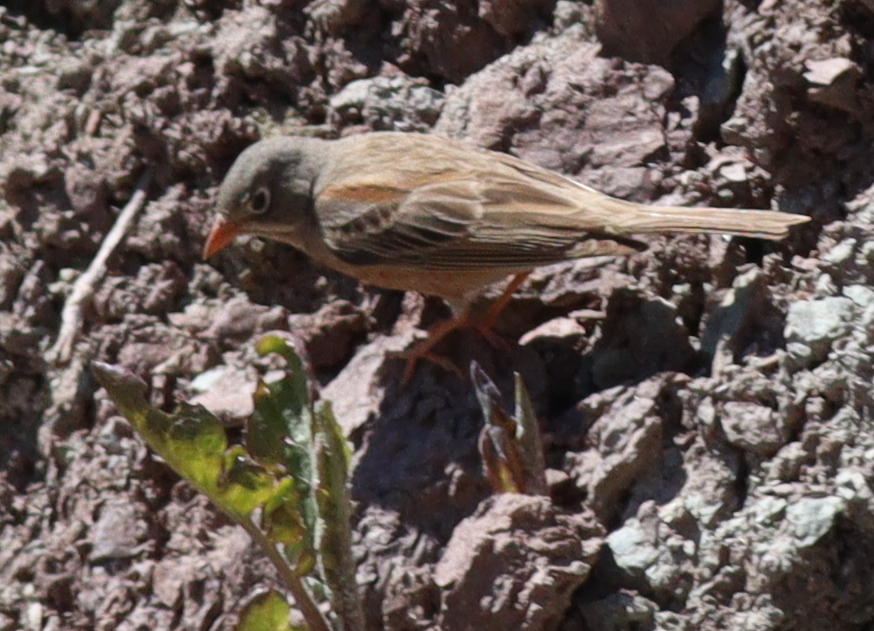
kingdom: Animalia
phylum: Chordata
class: Aves
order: Passeriformes
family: Emberizidae
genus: Emberiza
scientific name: Emberiza buchanani
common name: Grey-necked bunting
